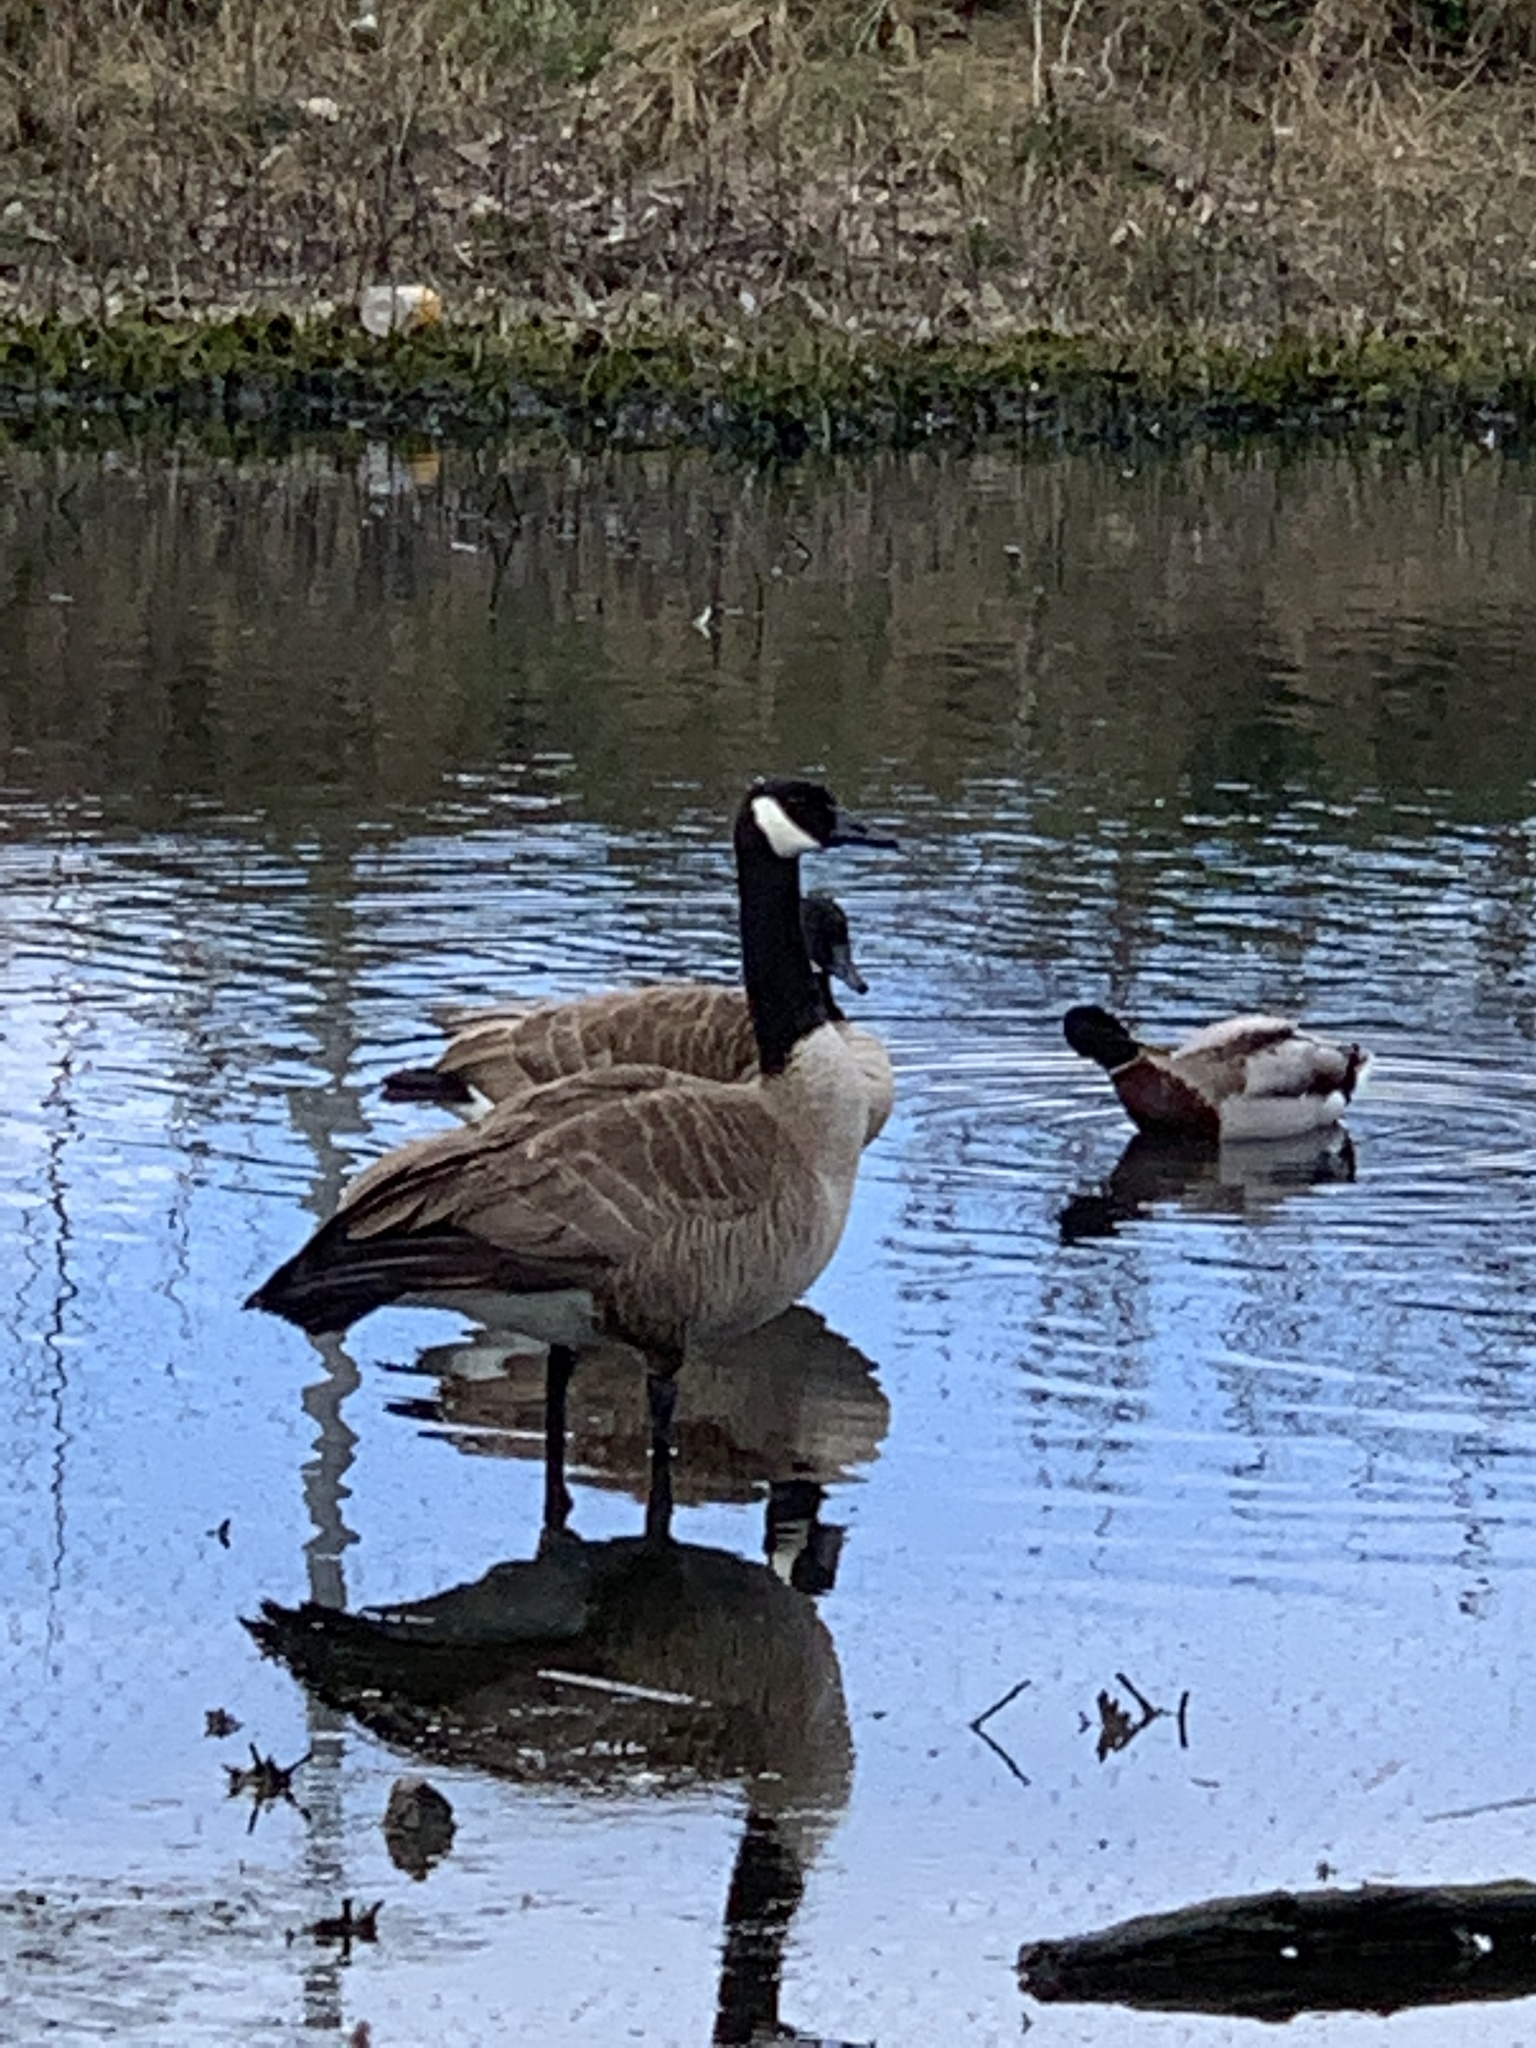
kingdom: Animalia
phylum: Chordata
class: Aves
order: Anseriformes
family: Anatidae
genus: Branta
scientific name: Branta canadensis
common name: Canada goose
